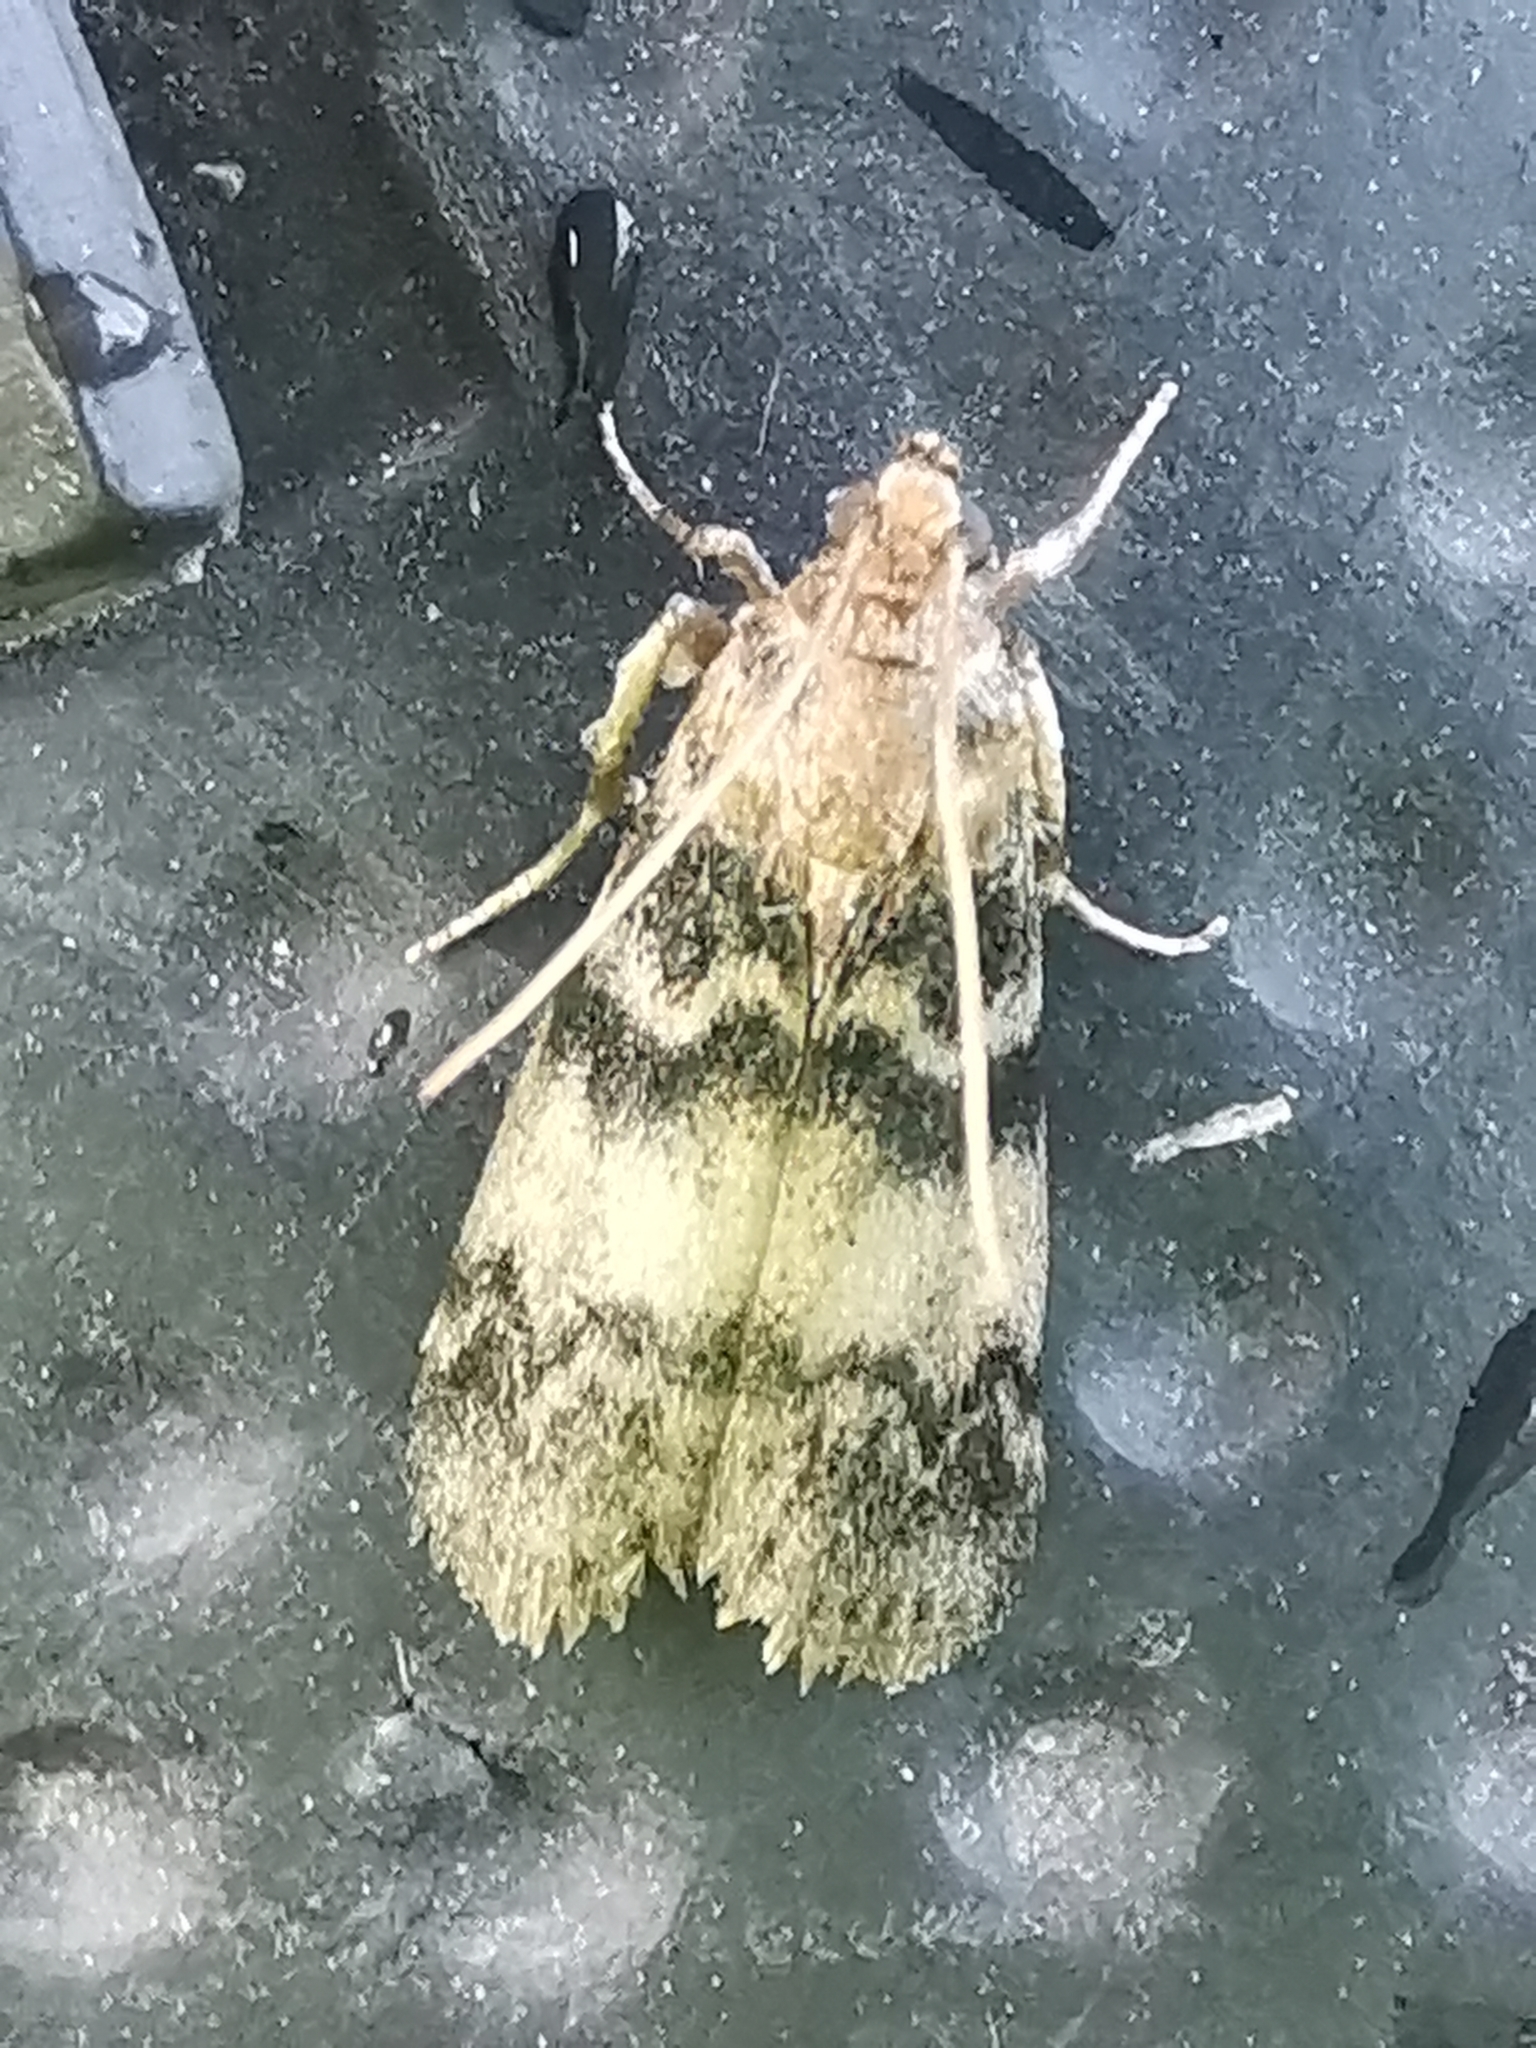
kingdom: Animalia
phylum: Arthropoda
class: Insecta
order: Lepidoptera
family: Pyralidae
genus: Euzophera
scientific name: Euzophera pinguis
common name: Ash-bark knot-horn
